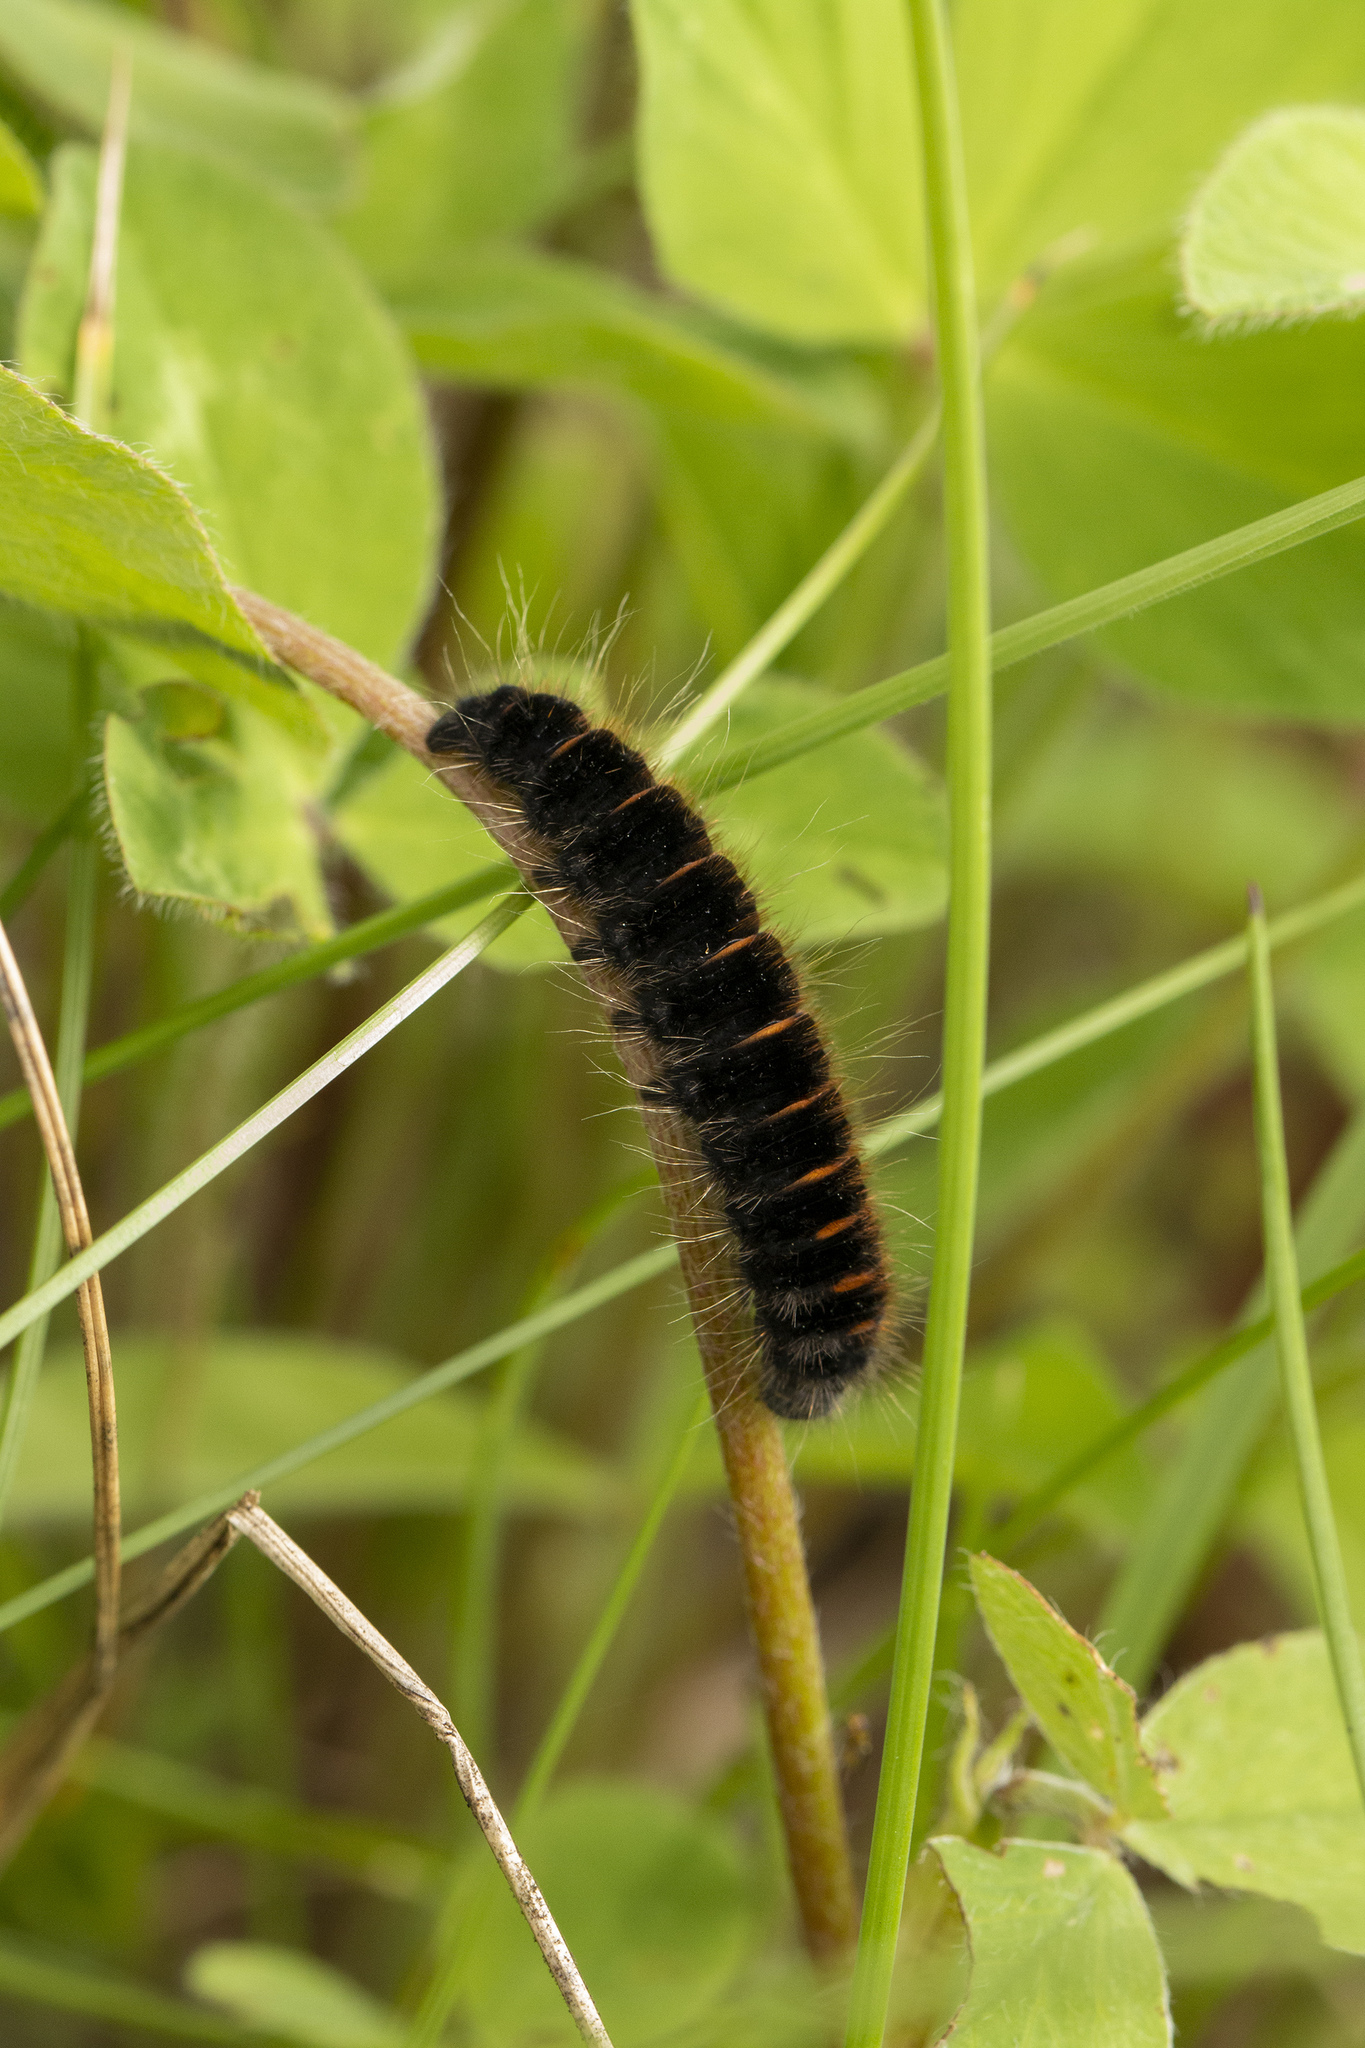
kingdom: Animalia
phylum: Arthropoda
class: Insecta
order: Lepidoptera
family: Lasiocampidae
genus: Macrothylacia
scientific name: Macrothylacia rubi
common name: Fox moth
